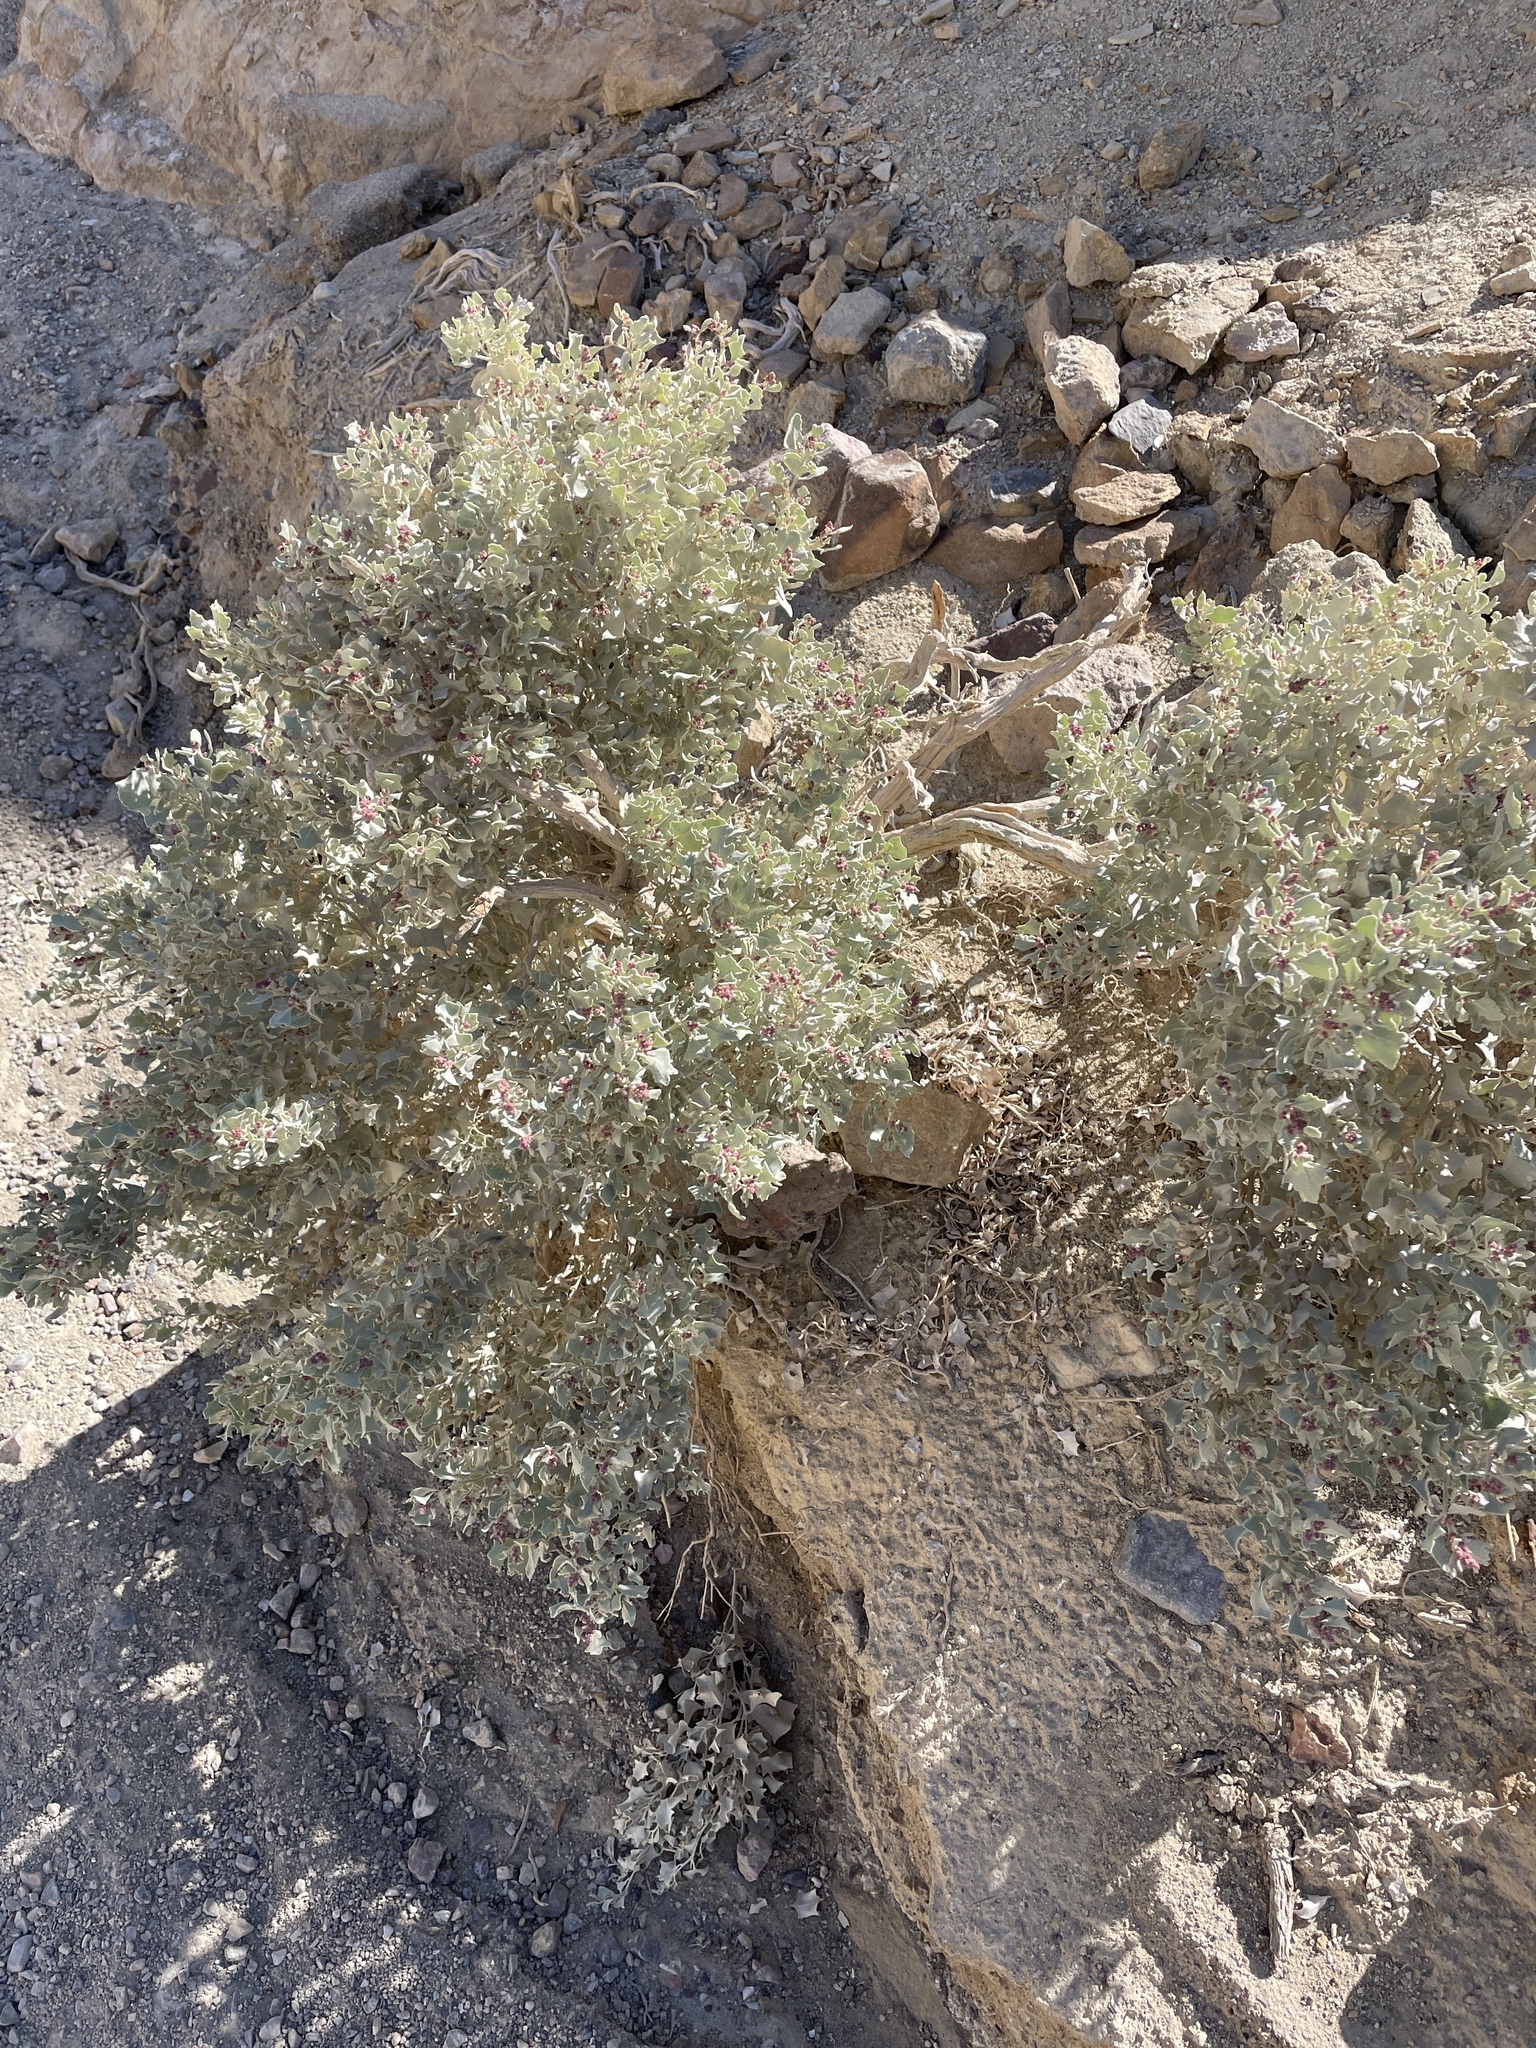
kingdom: Plantae
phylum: Tracheophyta
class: Magnoliopsida
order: Caryophyllales
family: Amaranthaceae
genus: Atriplex
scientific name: Atriplex hymenelytra
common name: Desert-holly
